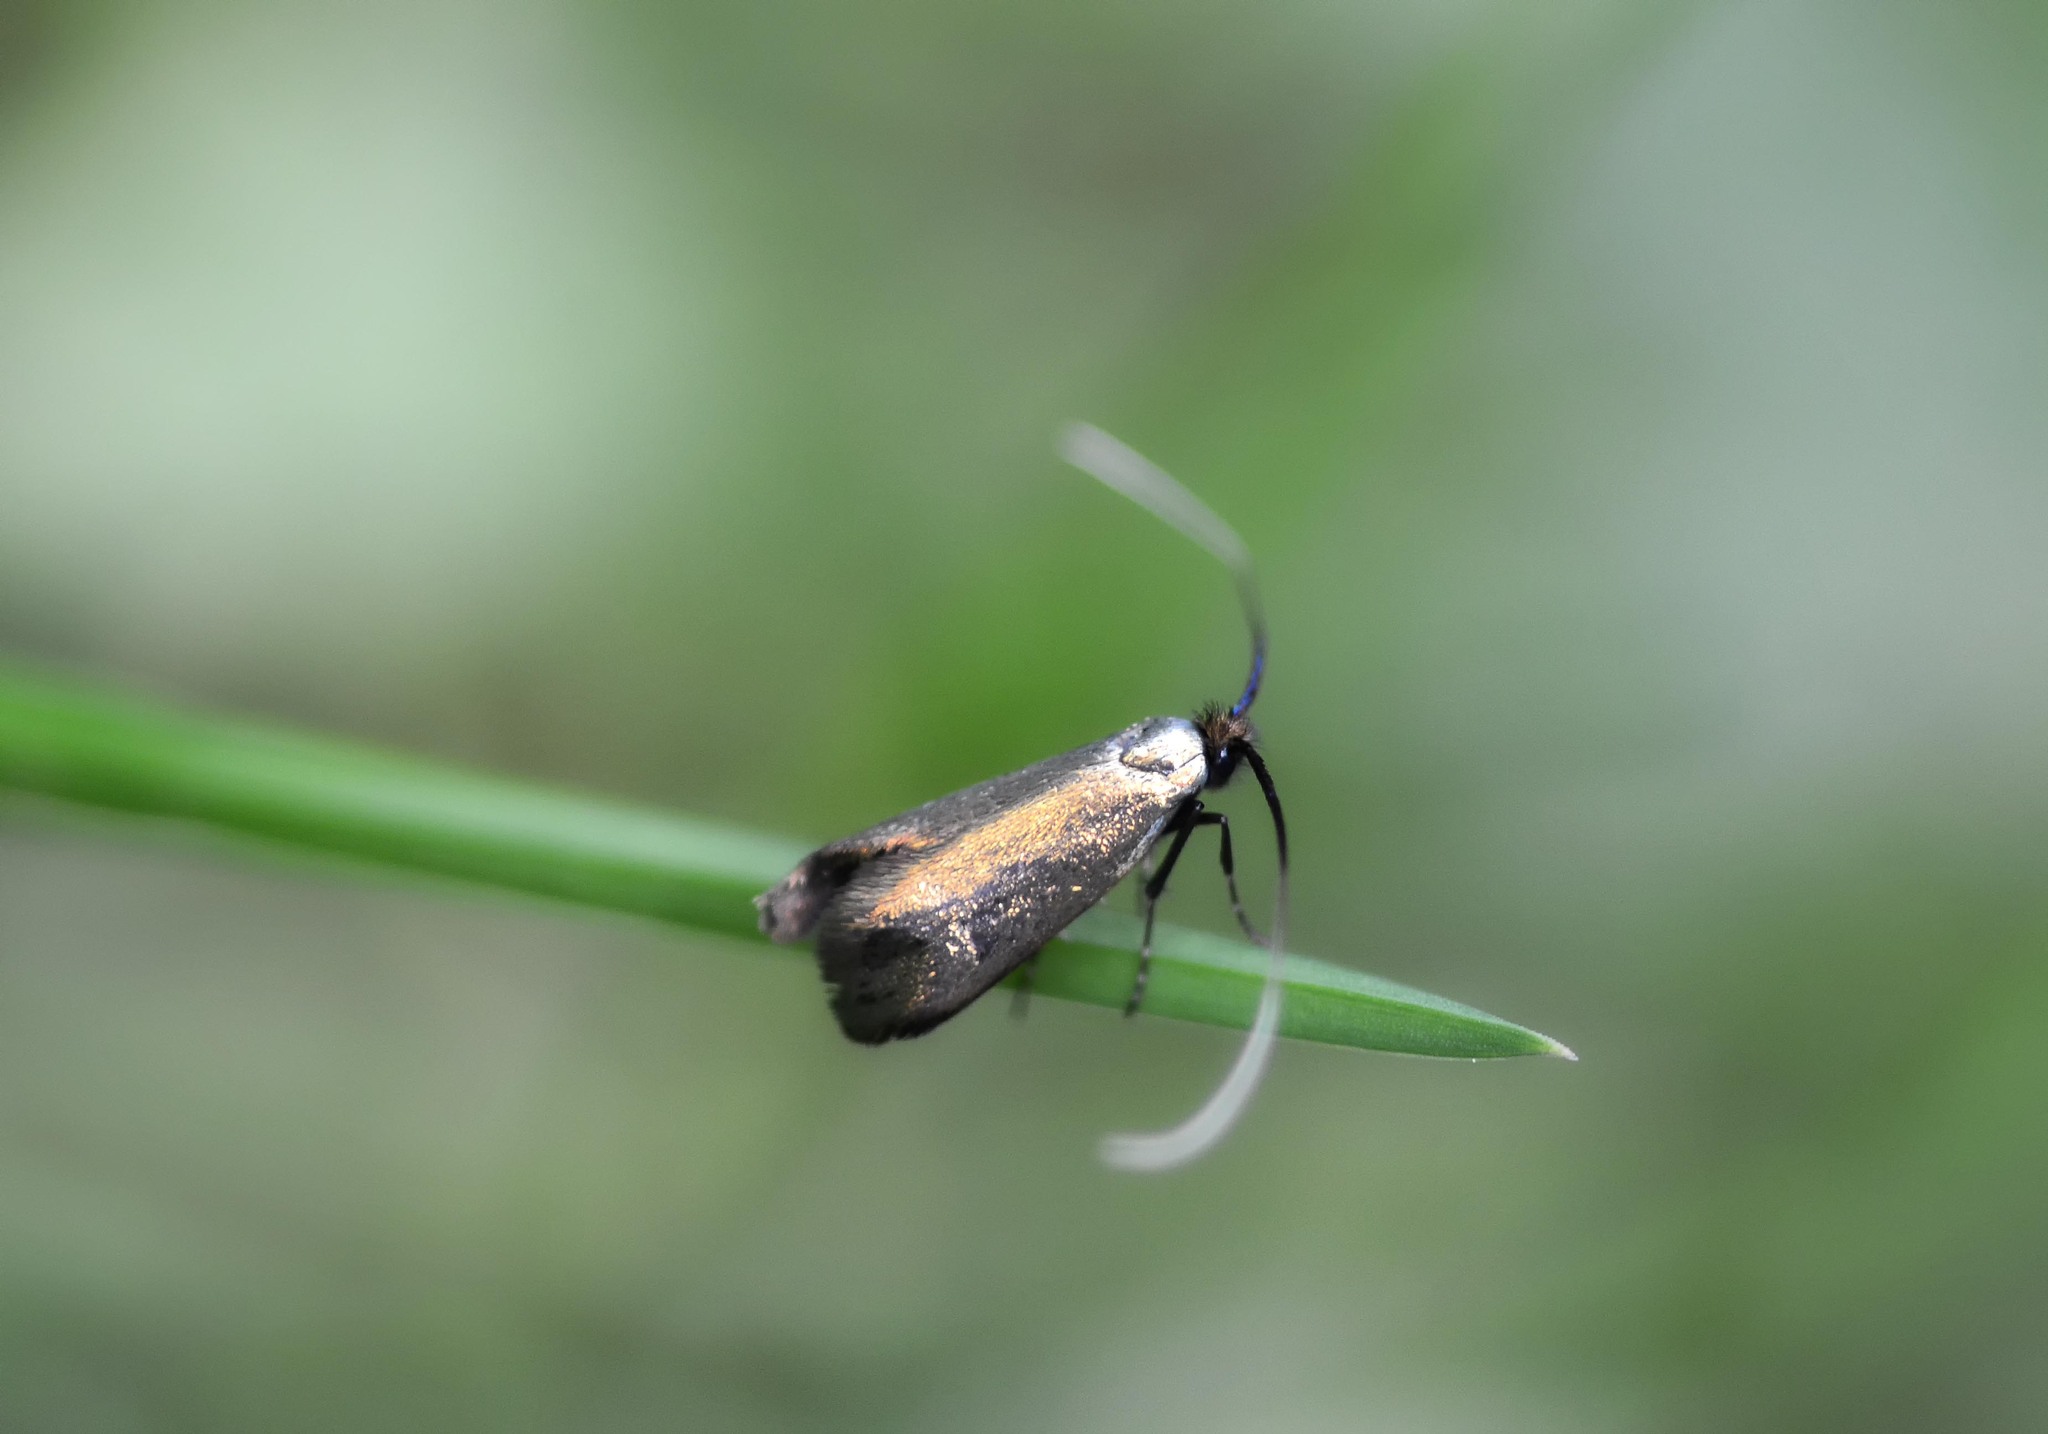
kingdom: Animalia
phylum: Arthropoda
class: Insecta
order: Lepidoptera
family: Adelidae
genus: Adela
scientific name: Adela viridella
